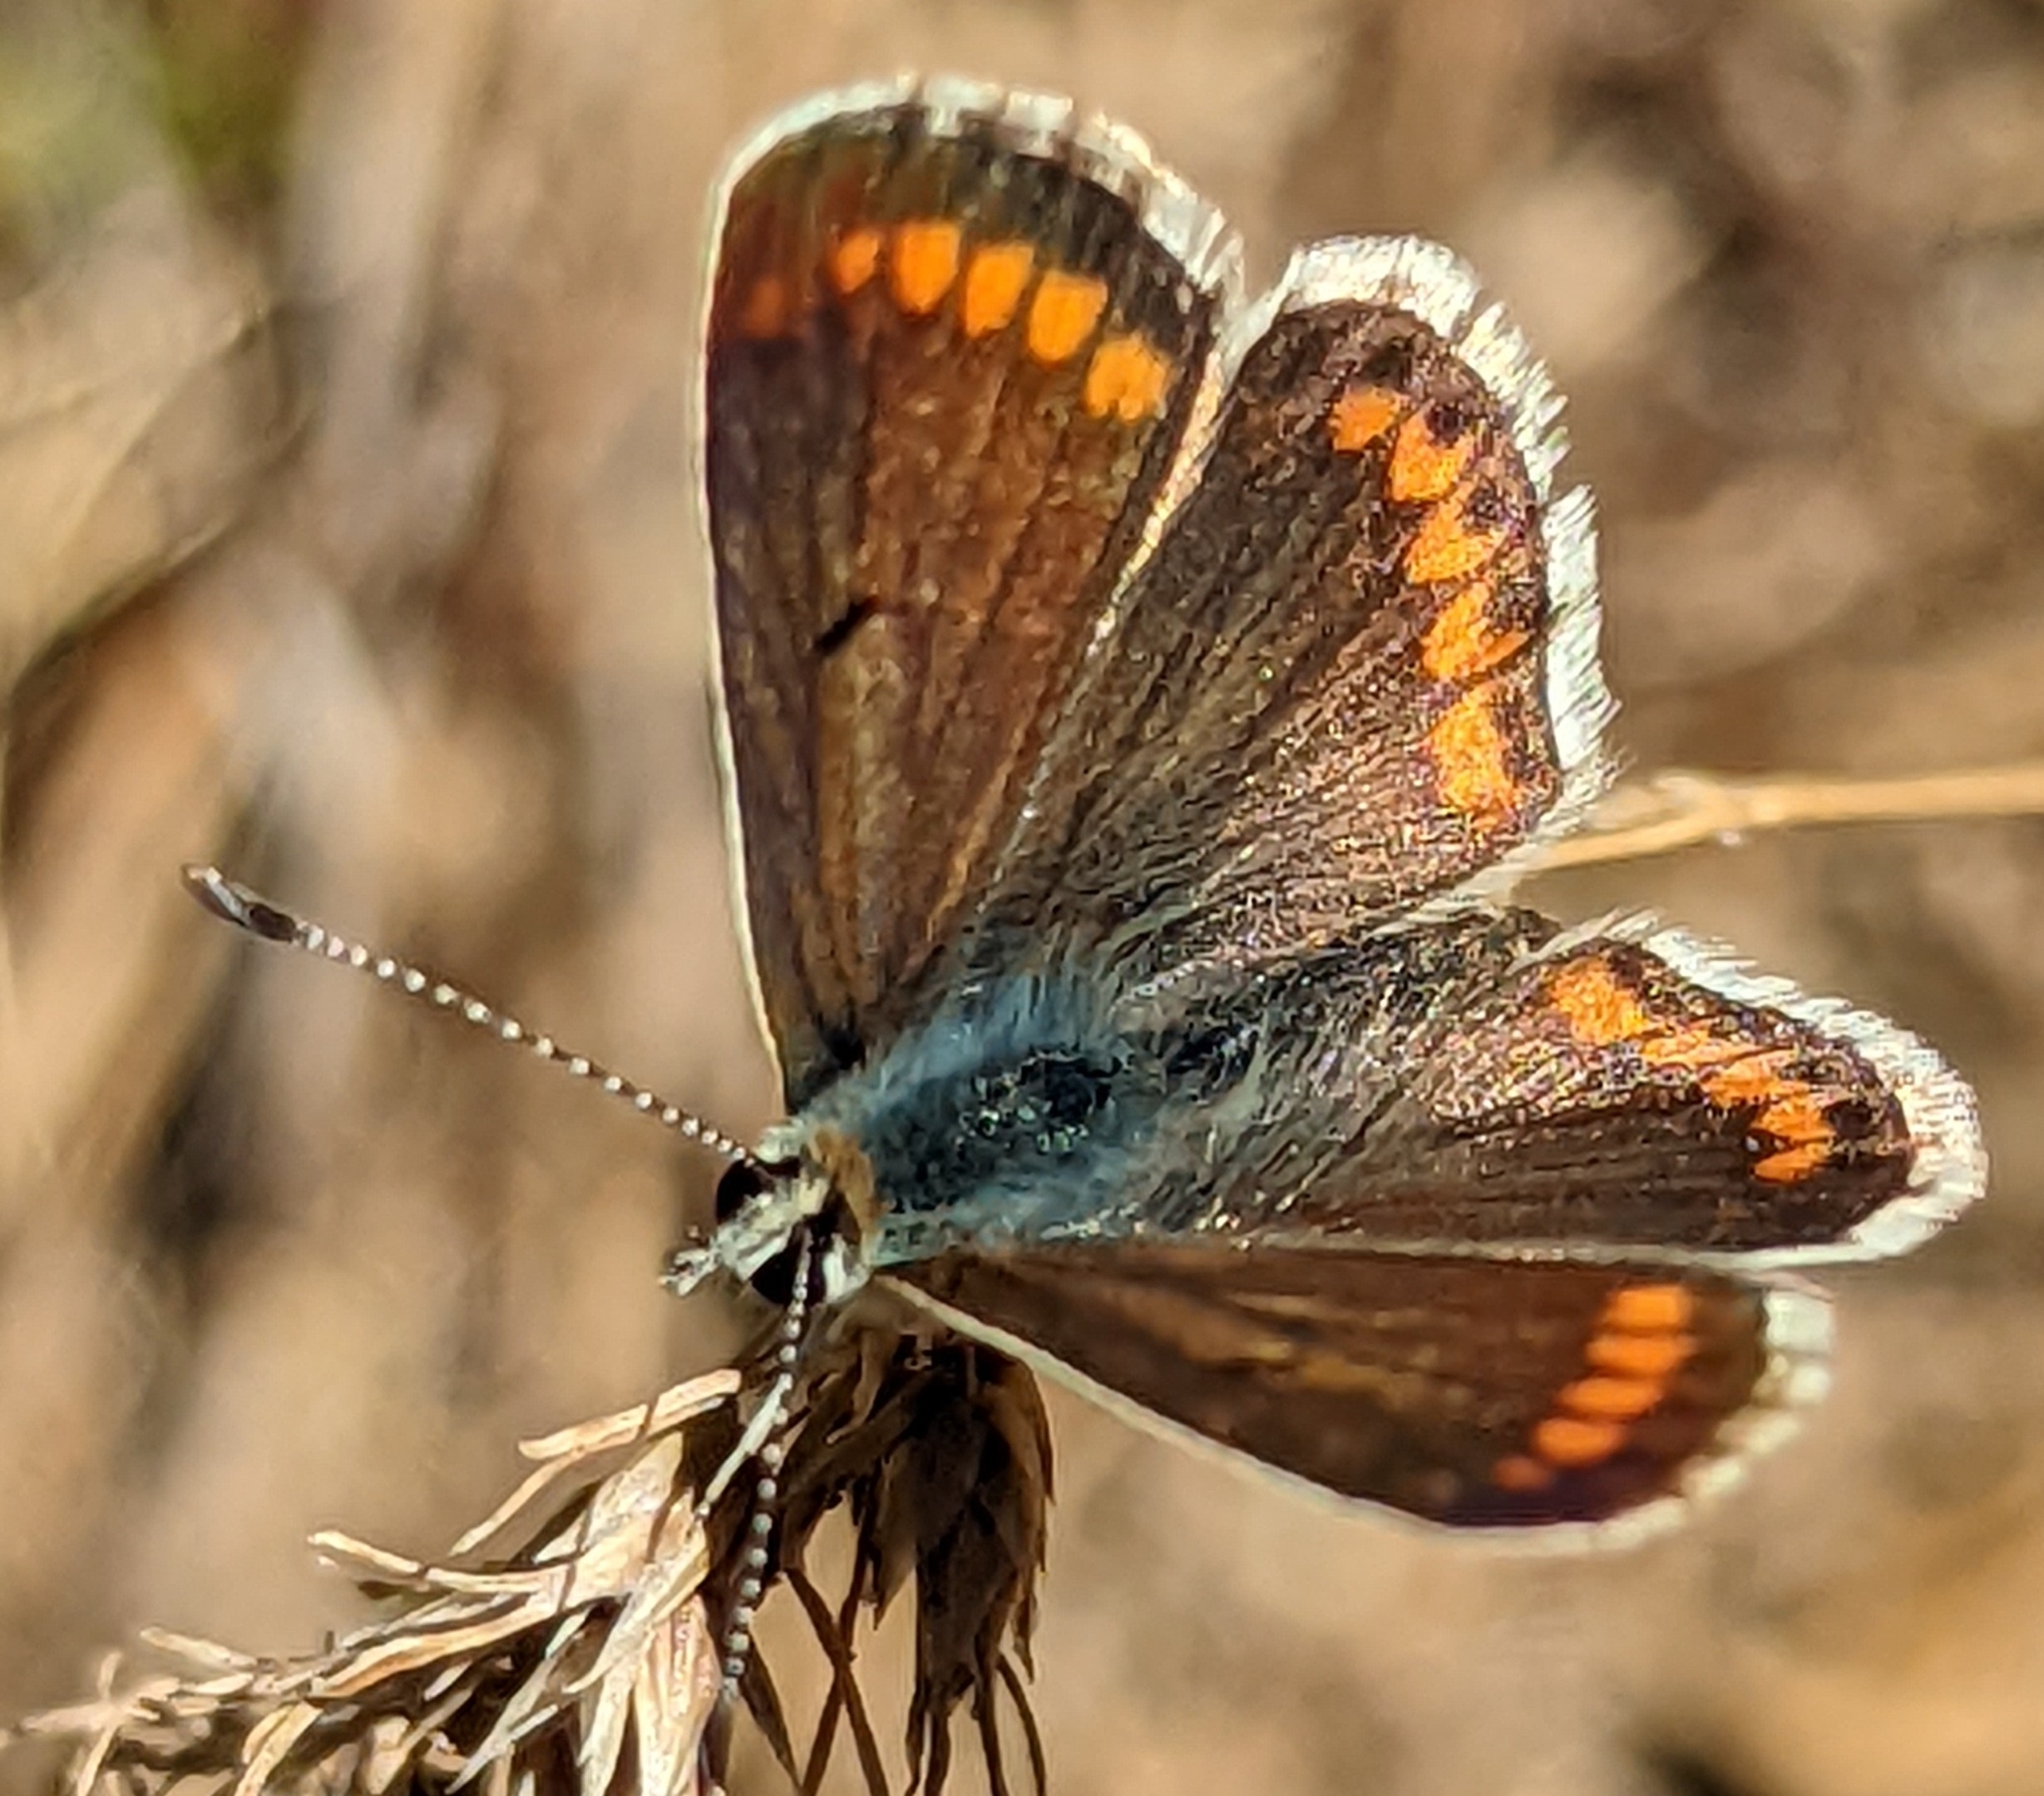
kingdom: Animalia
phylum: Arthropoda
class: Insecta
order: Lepidoptera
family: Lycaenidae
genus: Aricia
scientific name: Aricia agestis
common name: Brown argus
